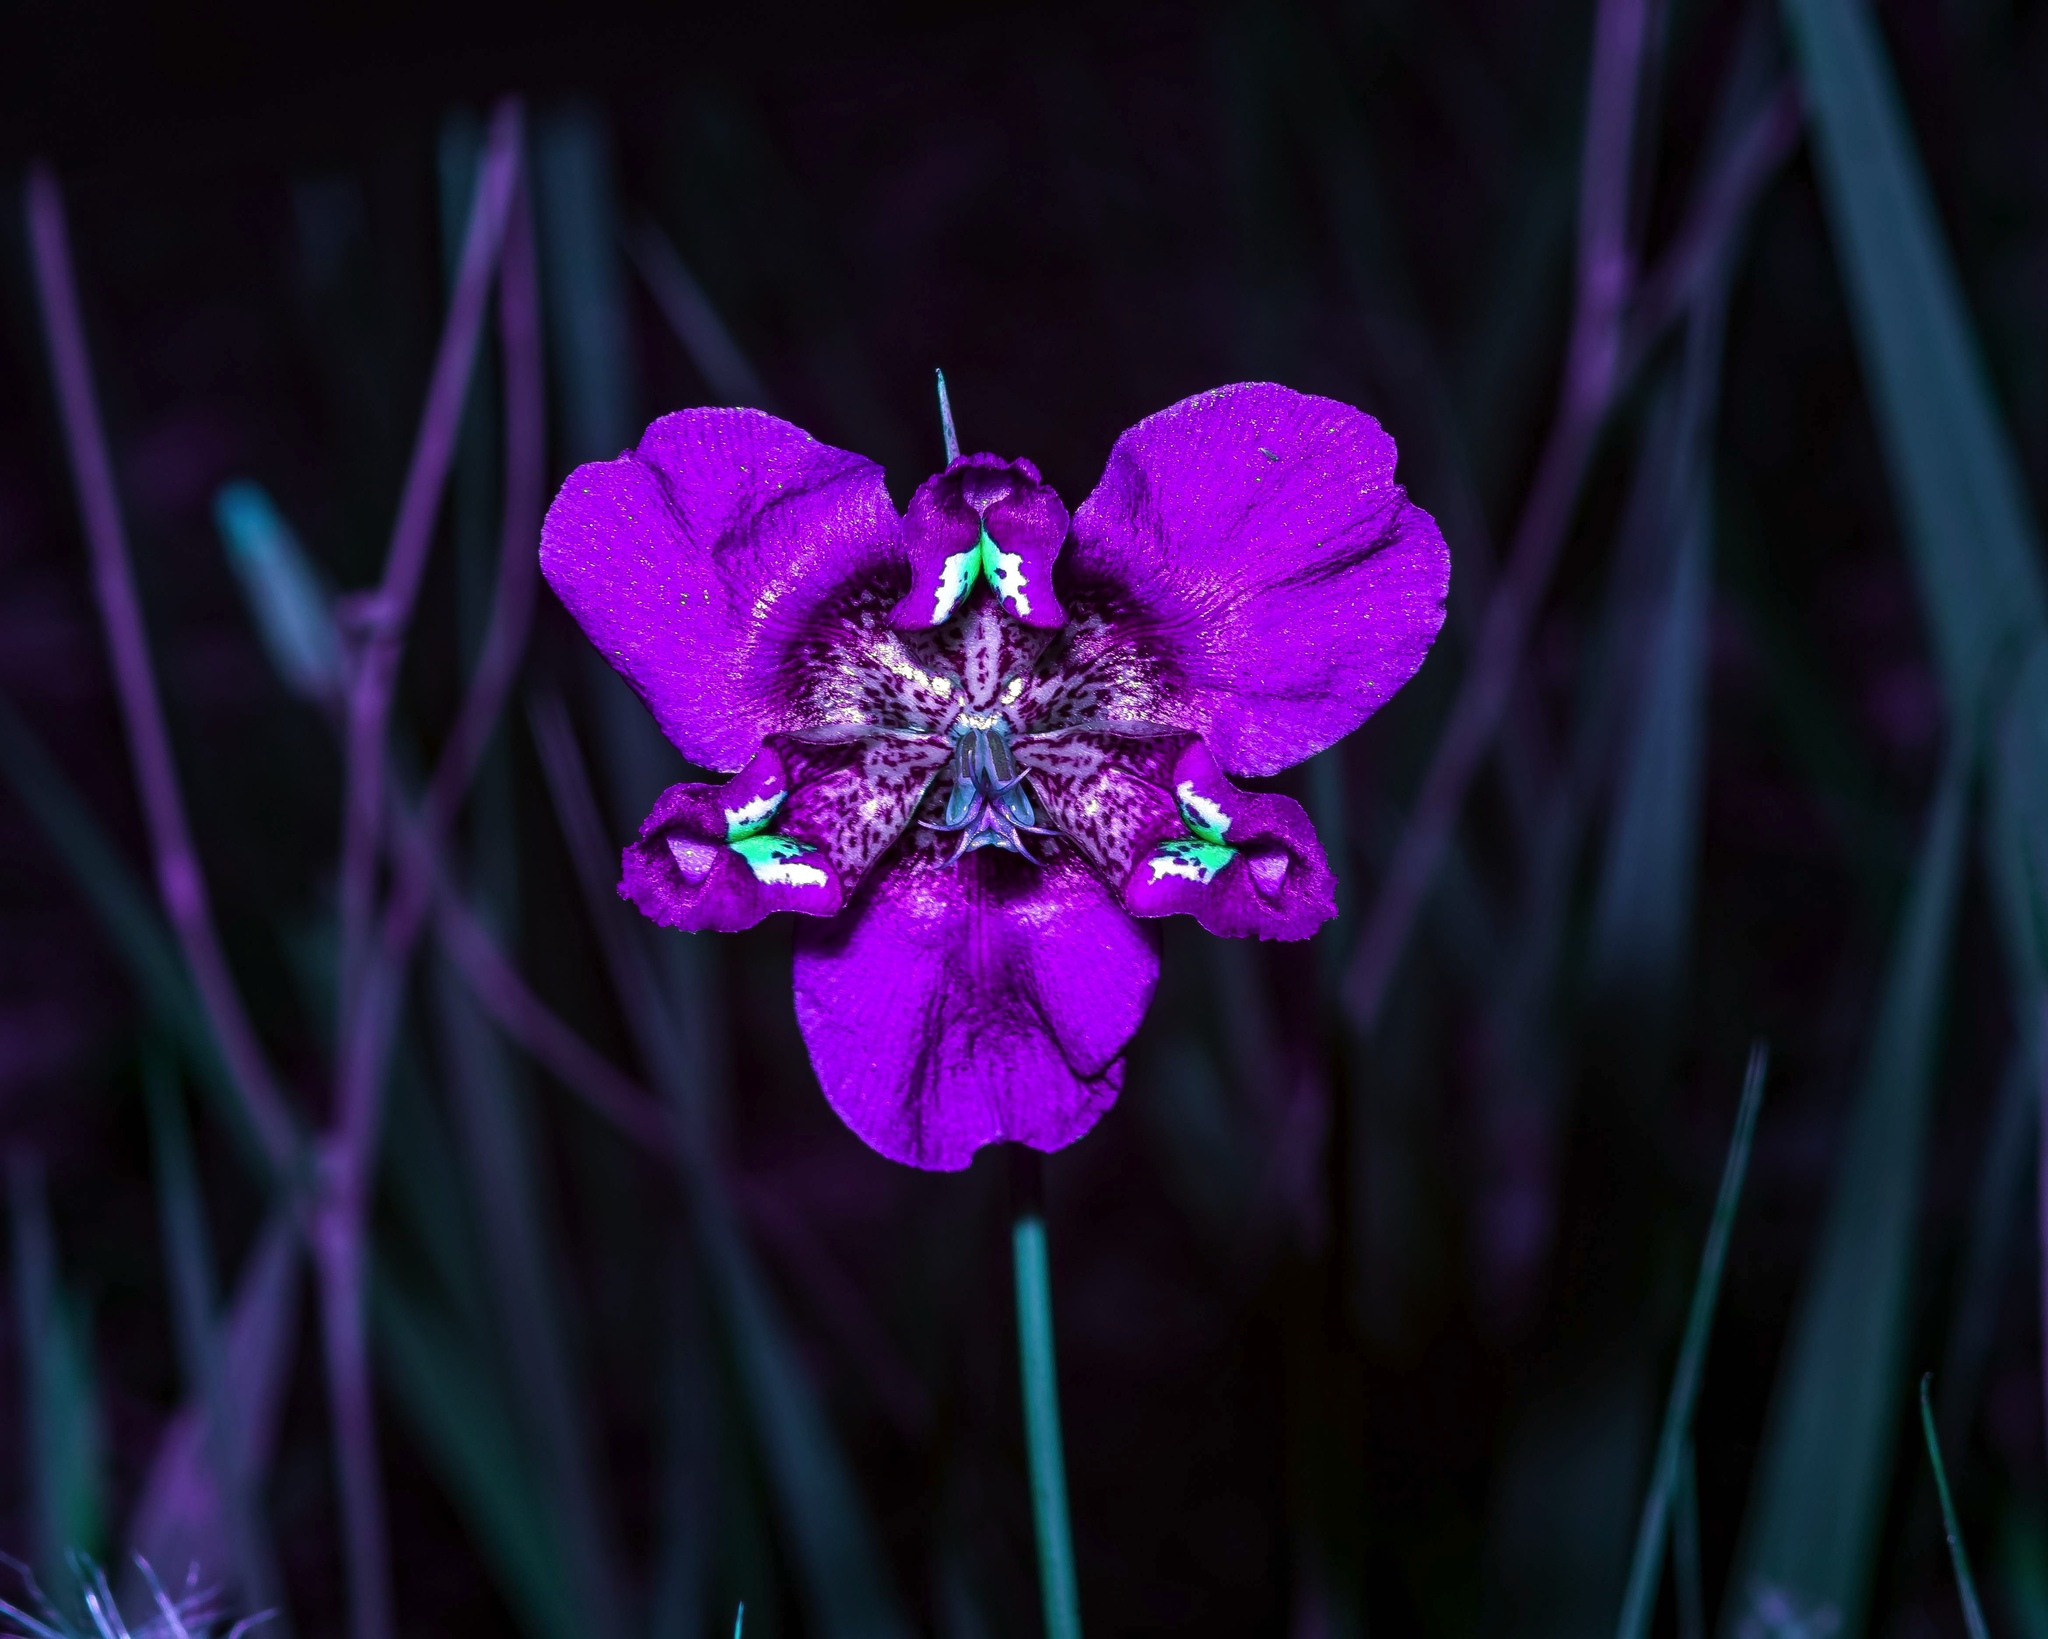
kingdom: Plantae
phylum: Tracheophyta
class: Liliopsida
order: Asparagales
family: Iridaceae
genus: Alophia
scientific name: Alophia drummondii
